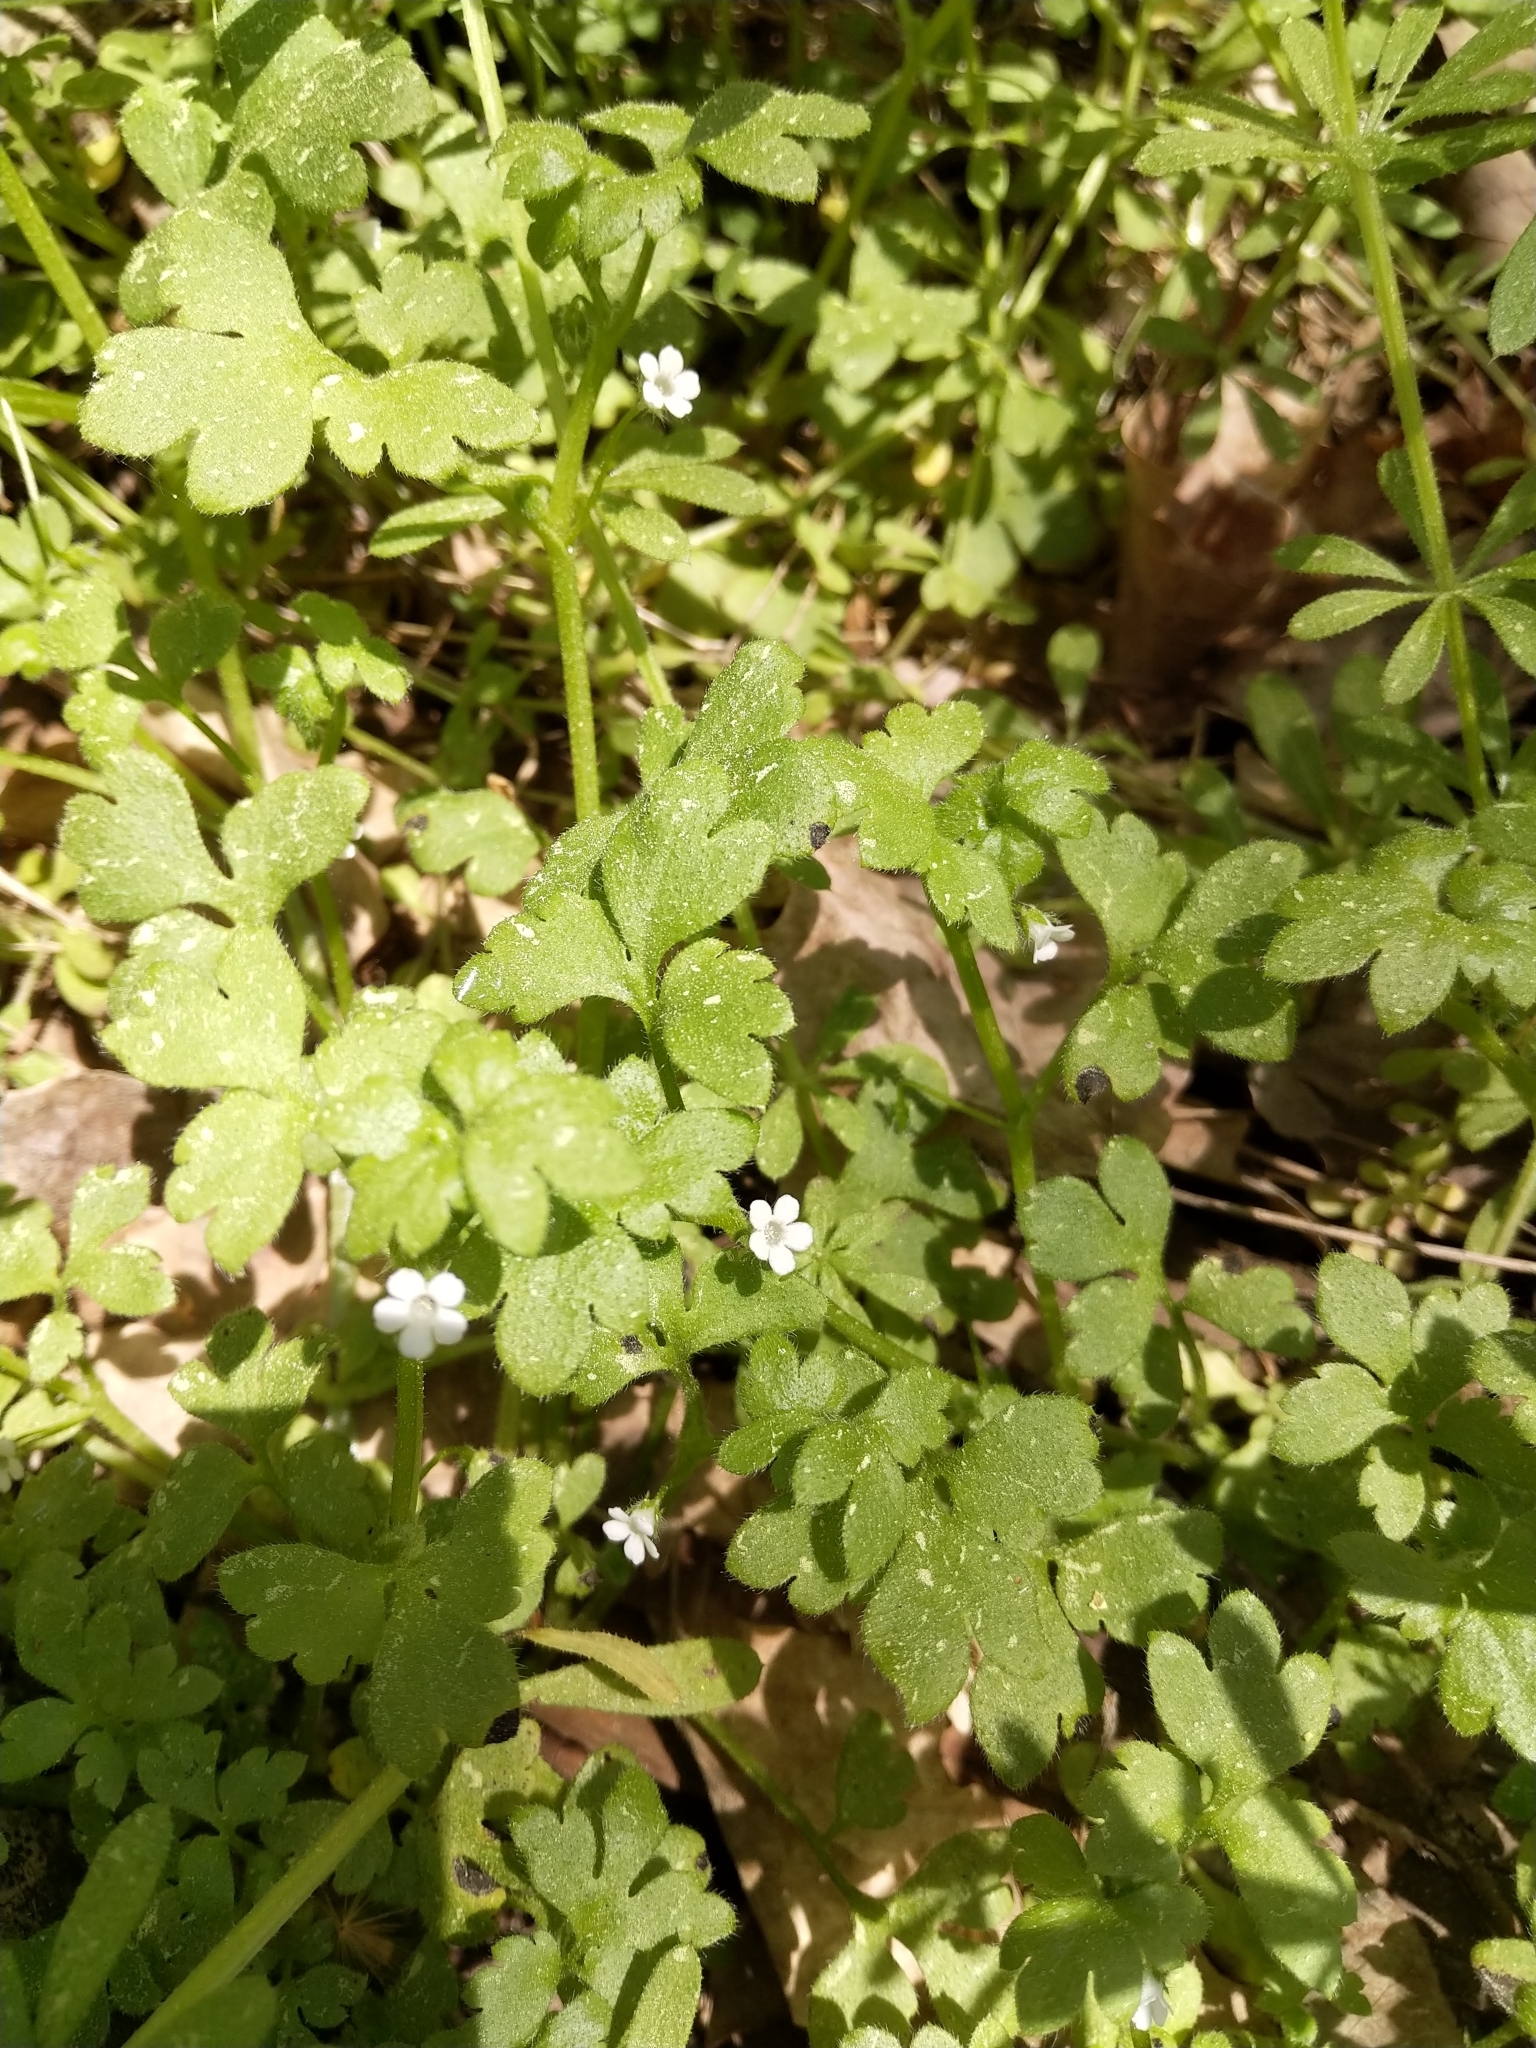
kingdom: Plantae
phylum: Tracheophyta
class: Magnoliopsida
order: Boraginales
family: Hydrophyllaceae
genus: Nemophila
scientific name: Nemophila aphylla
